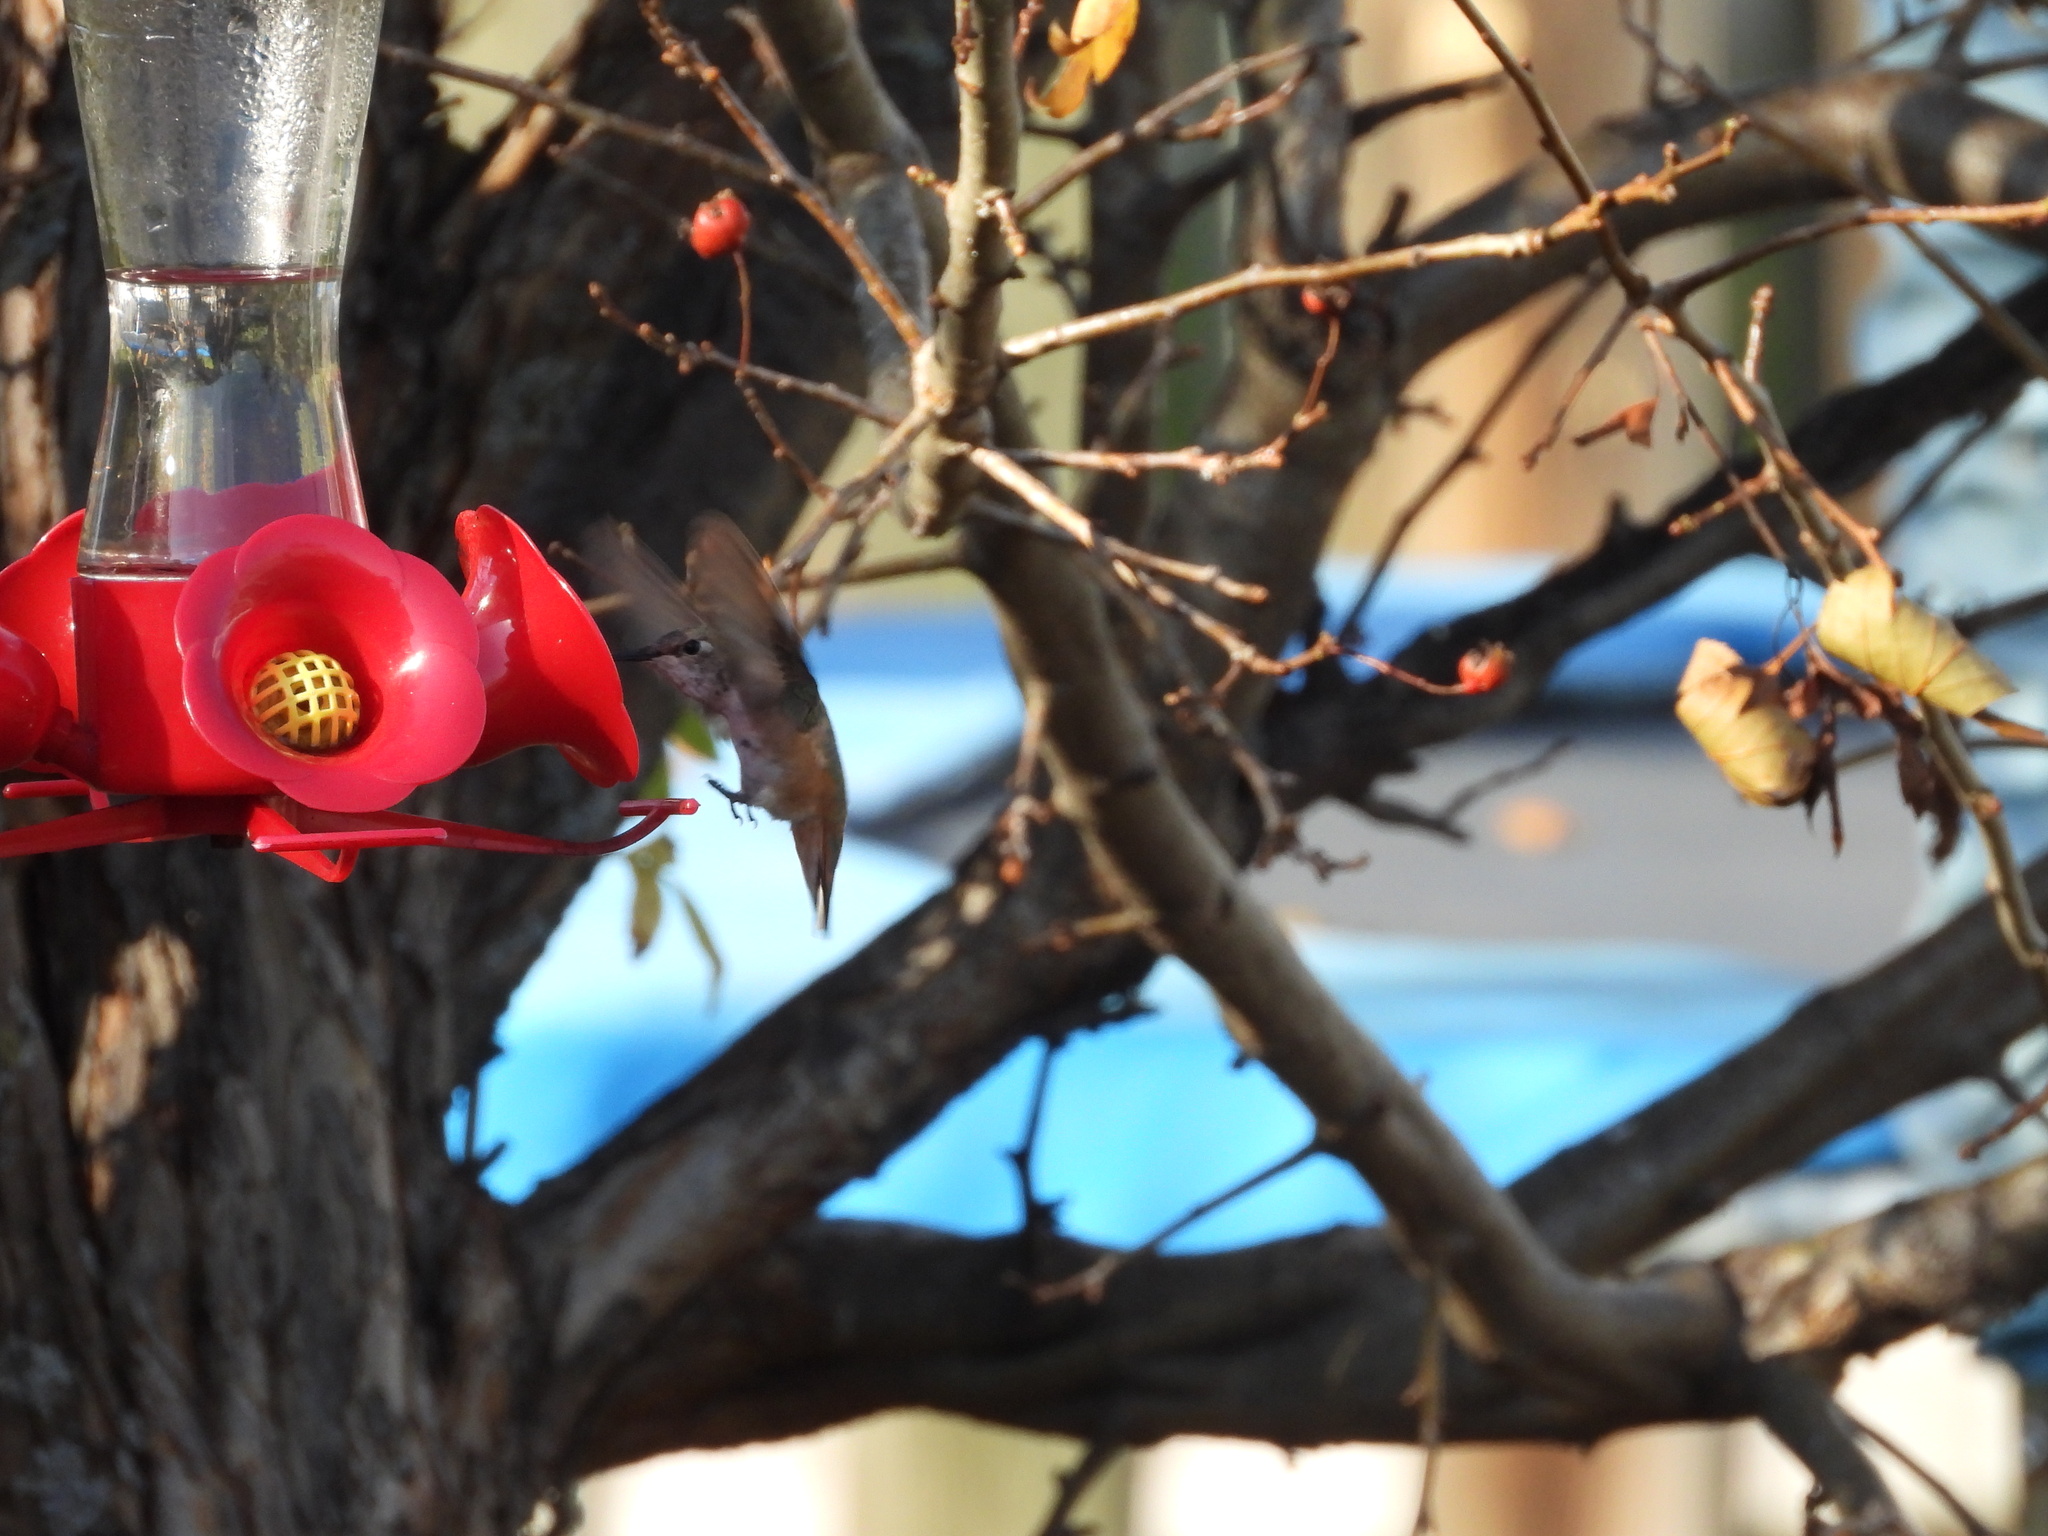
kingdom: Animalia
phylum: Chordata
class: Aves
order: Apodiformes
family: Trochilidae
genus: Selasphorus
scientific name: Selasphorus rufus
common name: Rufous hummingbird
